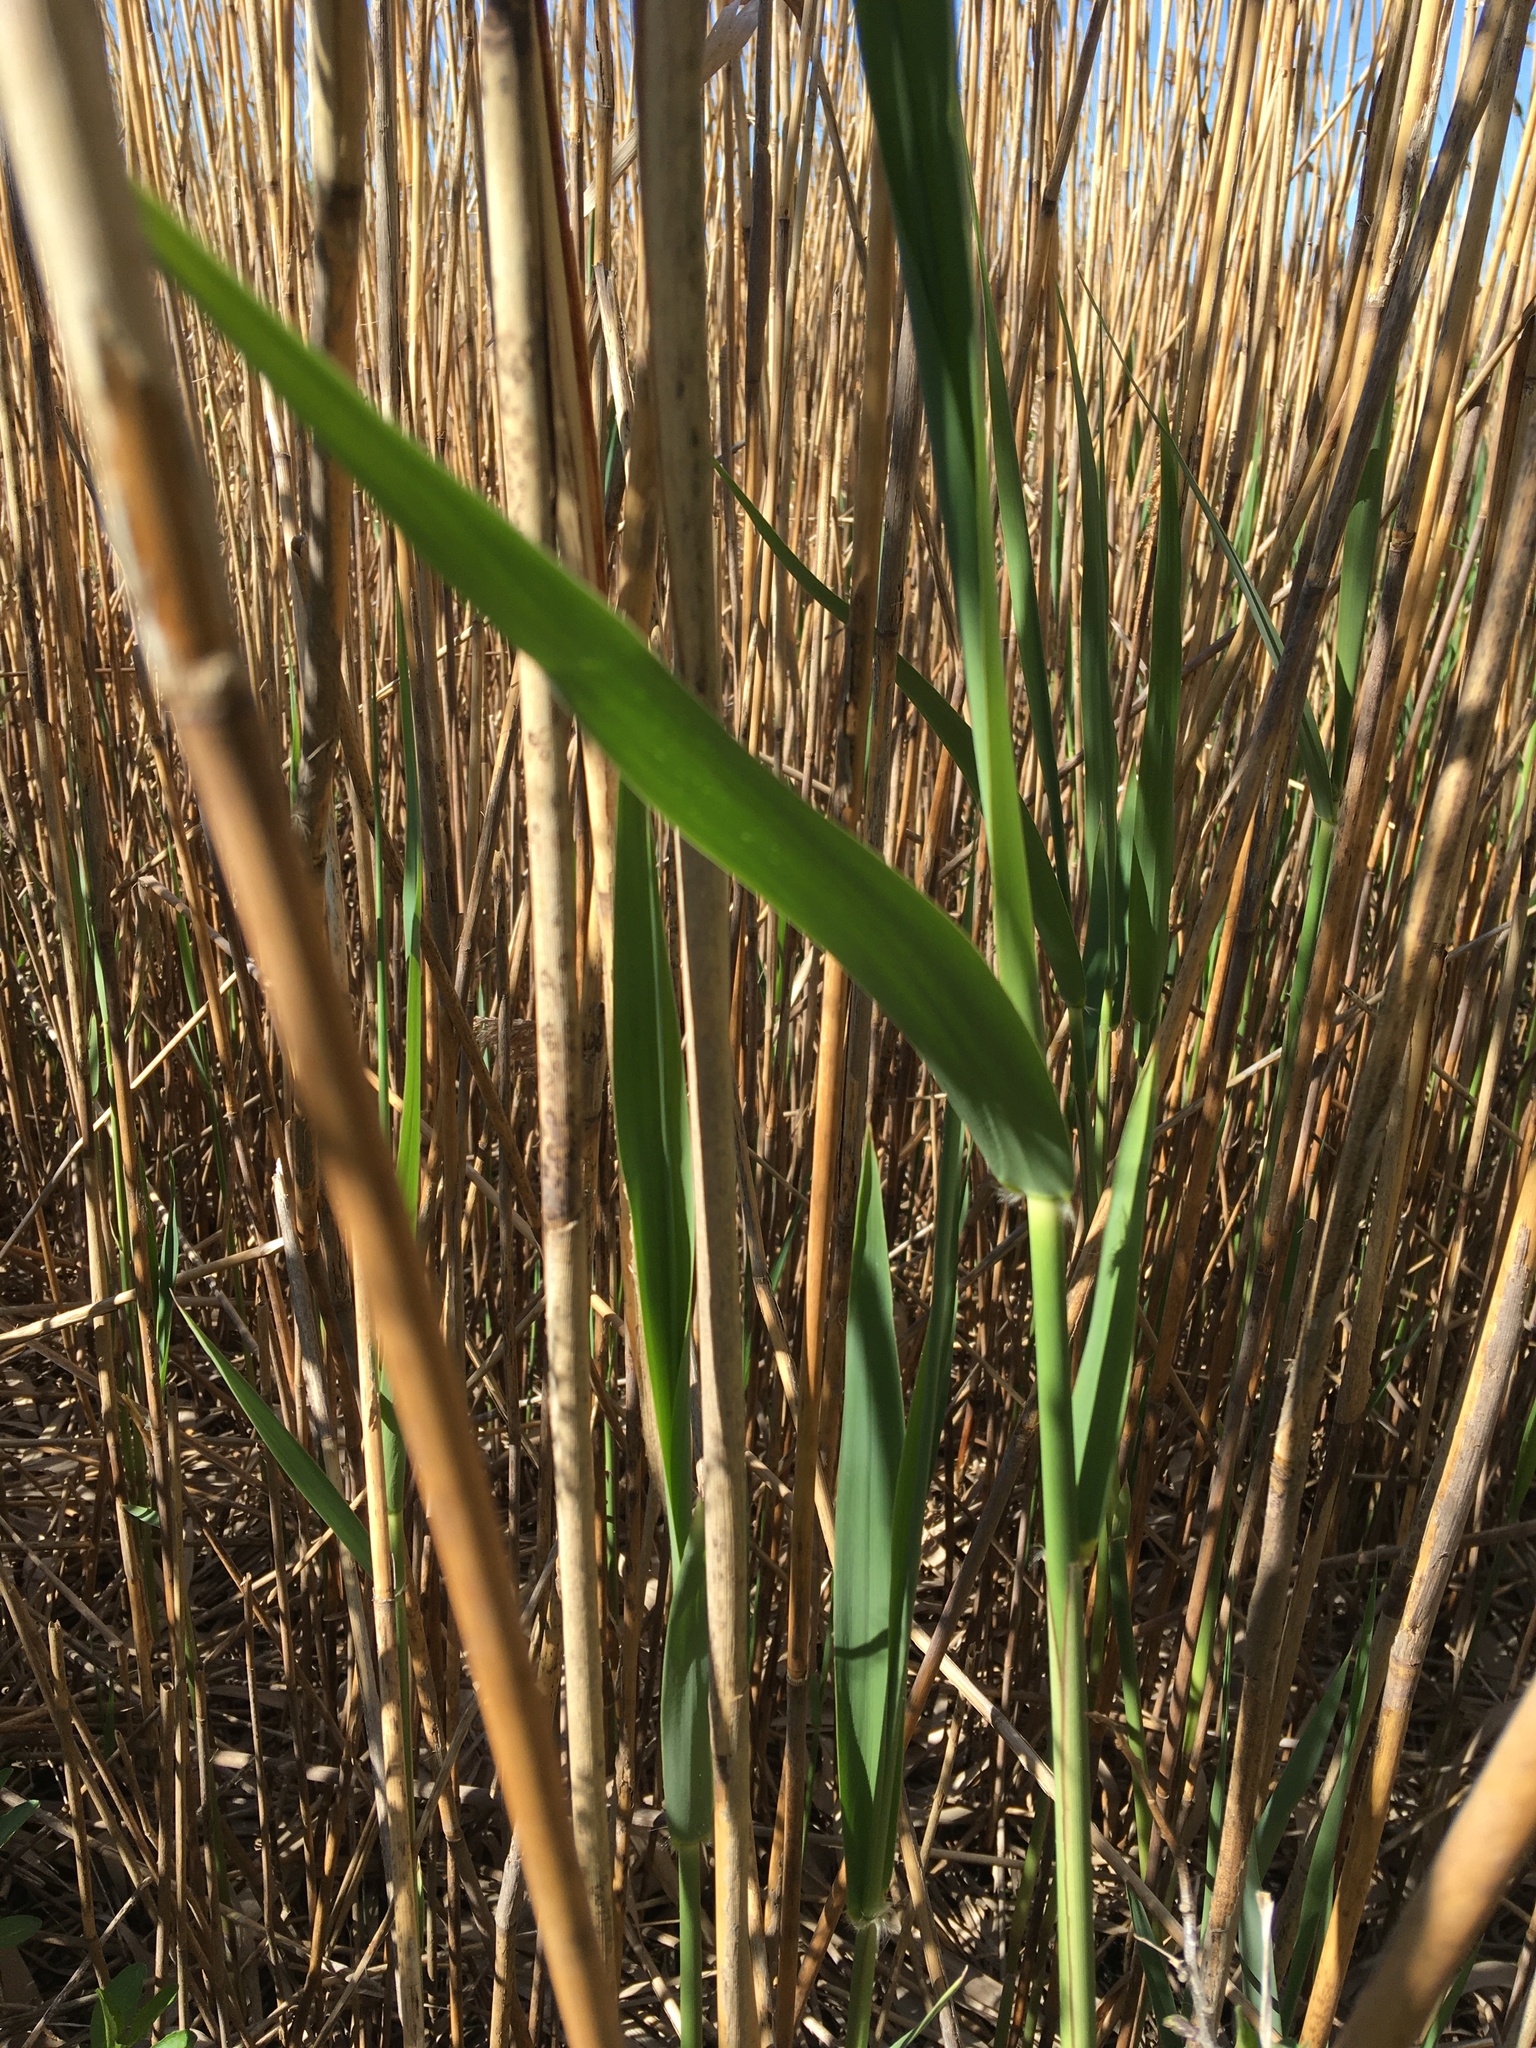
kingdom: Plantae
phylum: Tracheophyta
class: Liliopsida
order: Poales
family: Poaceae
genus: Phragmites
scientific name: Phragmites australis
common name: Common reed
